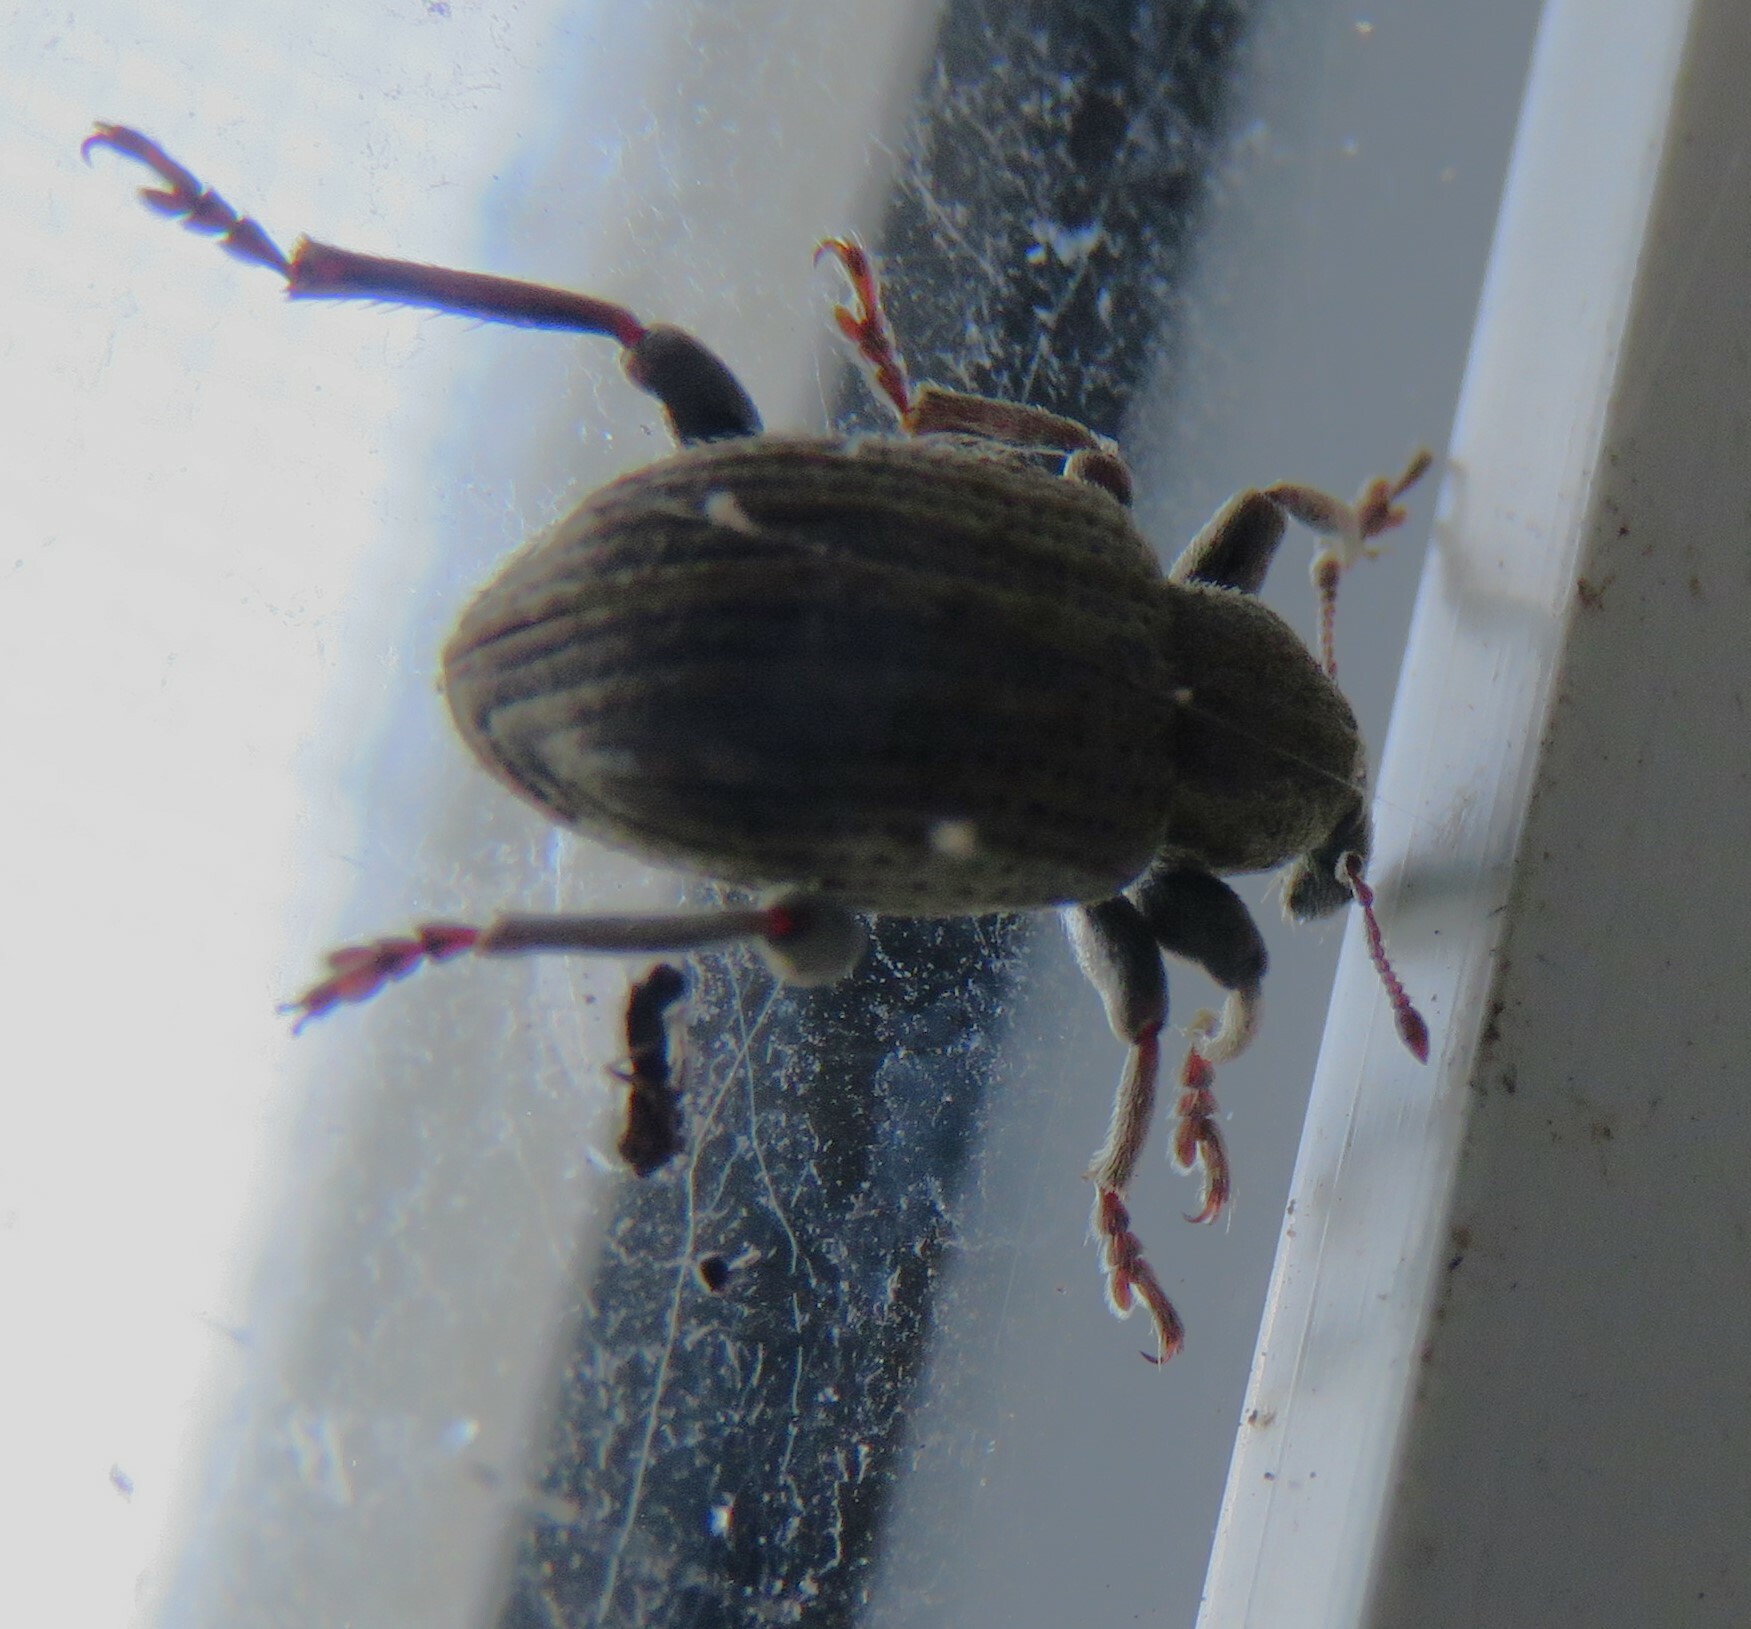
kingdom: Animalia
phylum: Arthropoda
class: Insecta
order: Coleoptera
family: Curculionidae
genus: Brachypera
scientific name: Brachypera zoilus
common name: Clover leaf weevil
